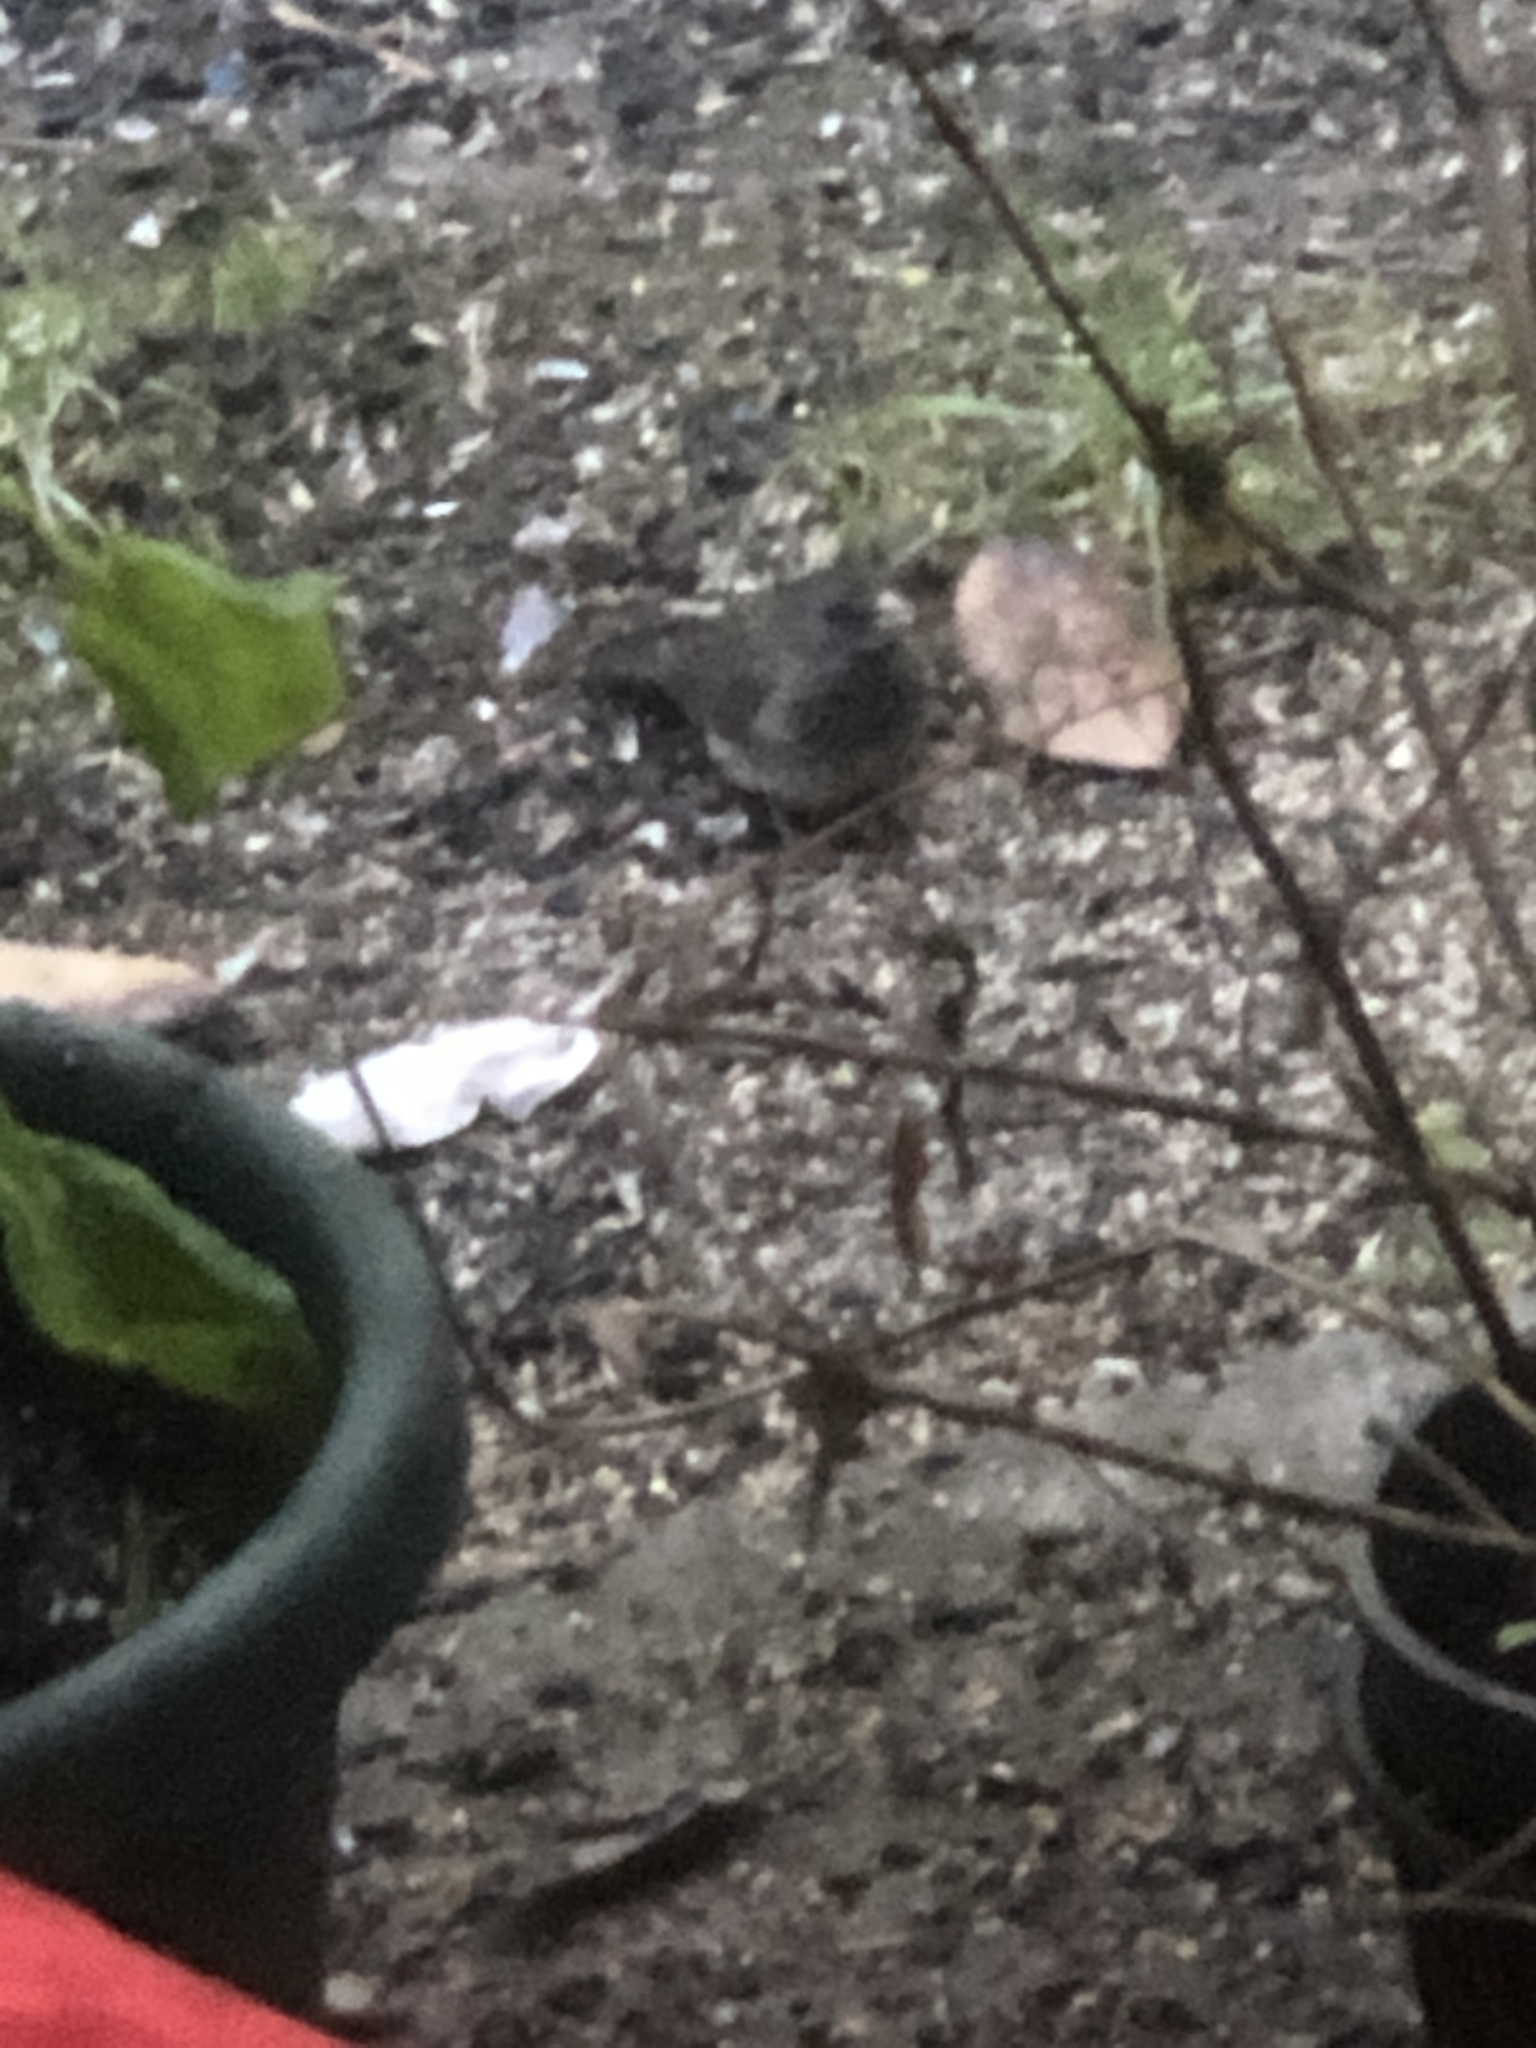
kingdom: Animalia
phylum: Chordata
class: Aves
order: Passeriformes
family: Passerellidae
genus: Junco
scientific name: Junco hyemalis
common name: Dark-eyed junco
